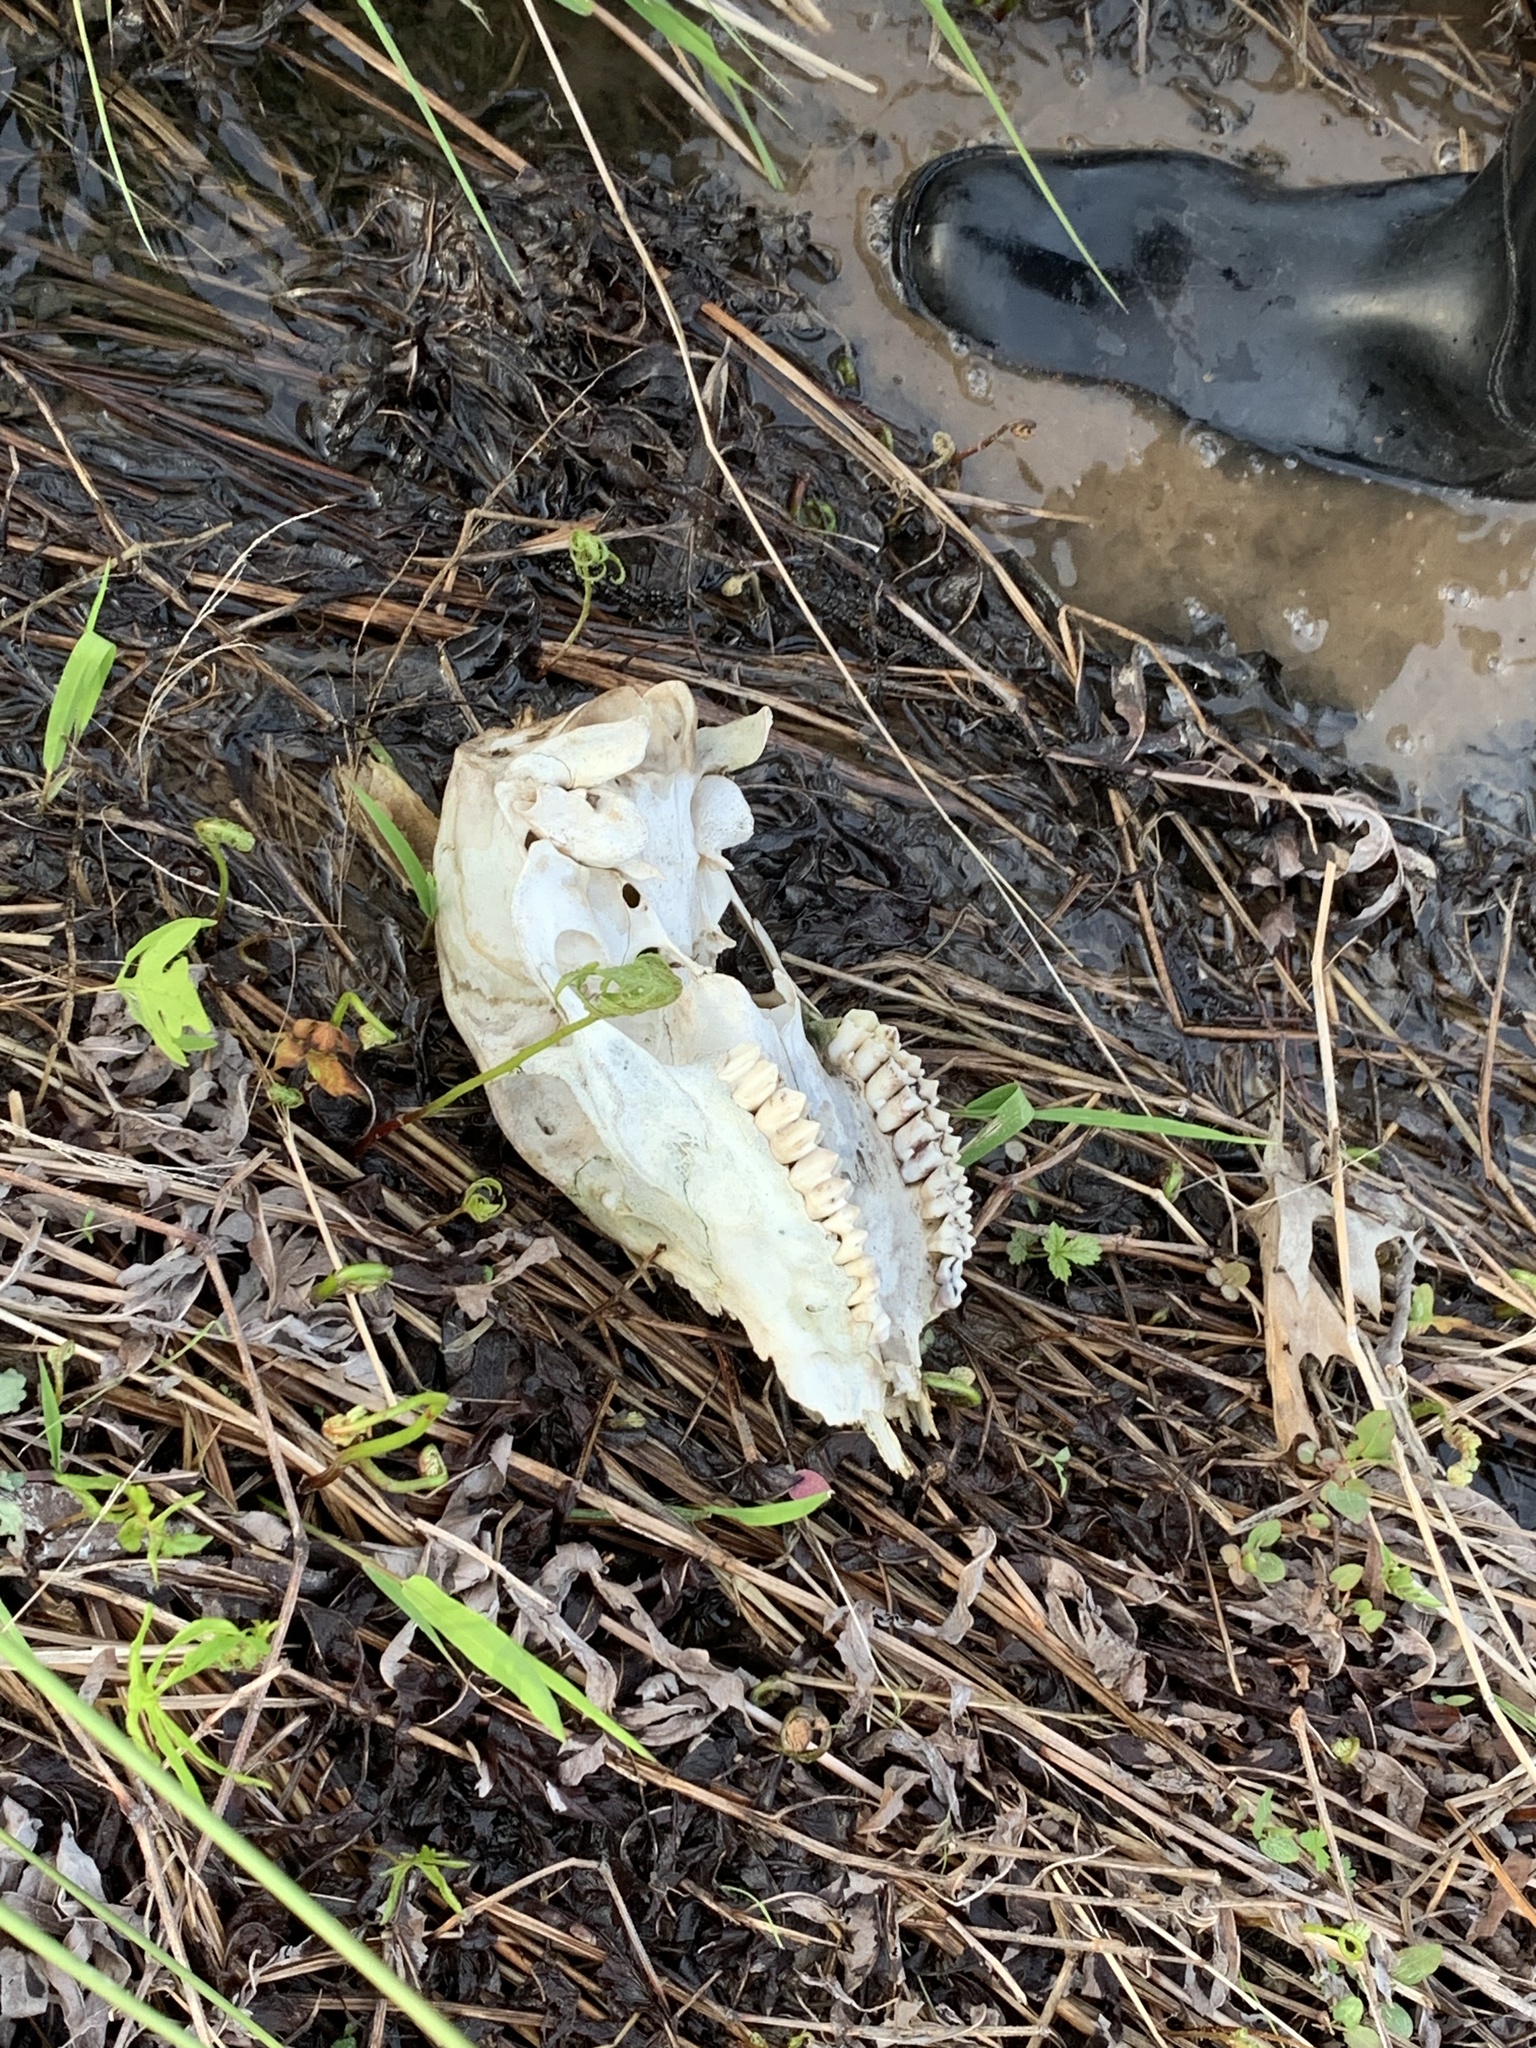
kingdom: Animalia
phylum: Chordata
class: Mammalia
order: Artiodactyla
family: Cervidae
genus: Odocoileus
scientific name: Odocoileus virginianus
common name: White-tailed deer
